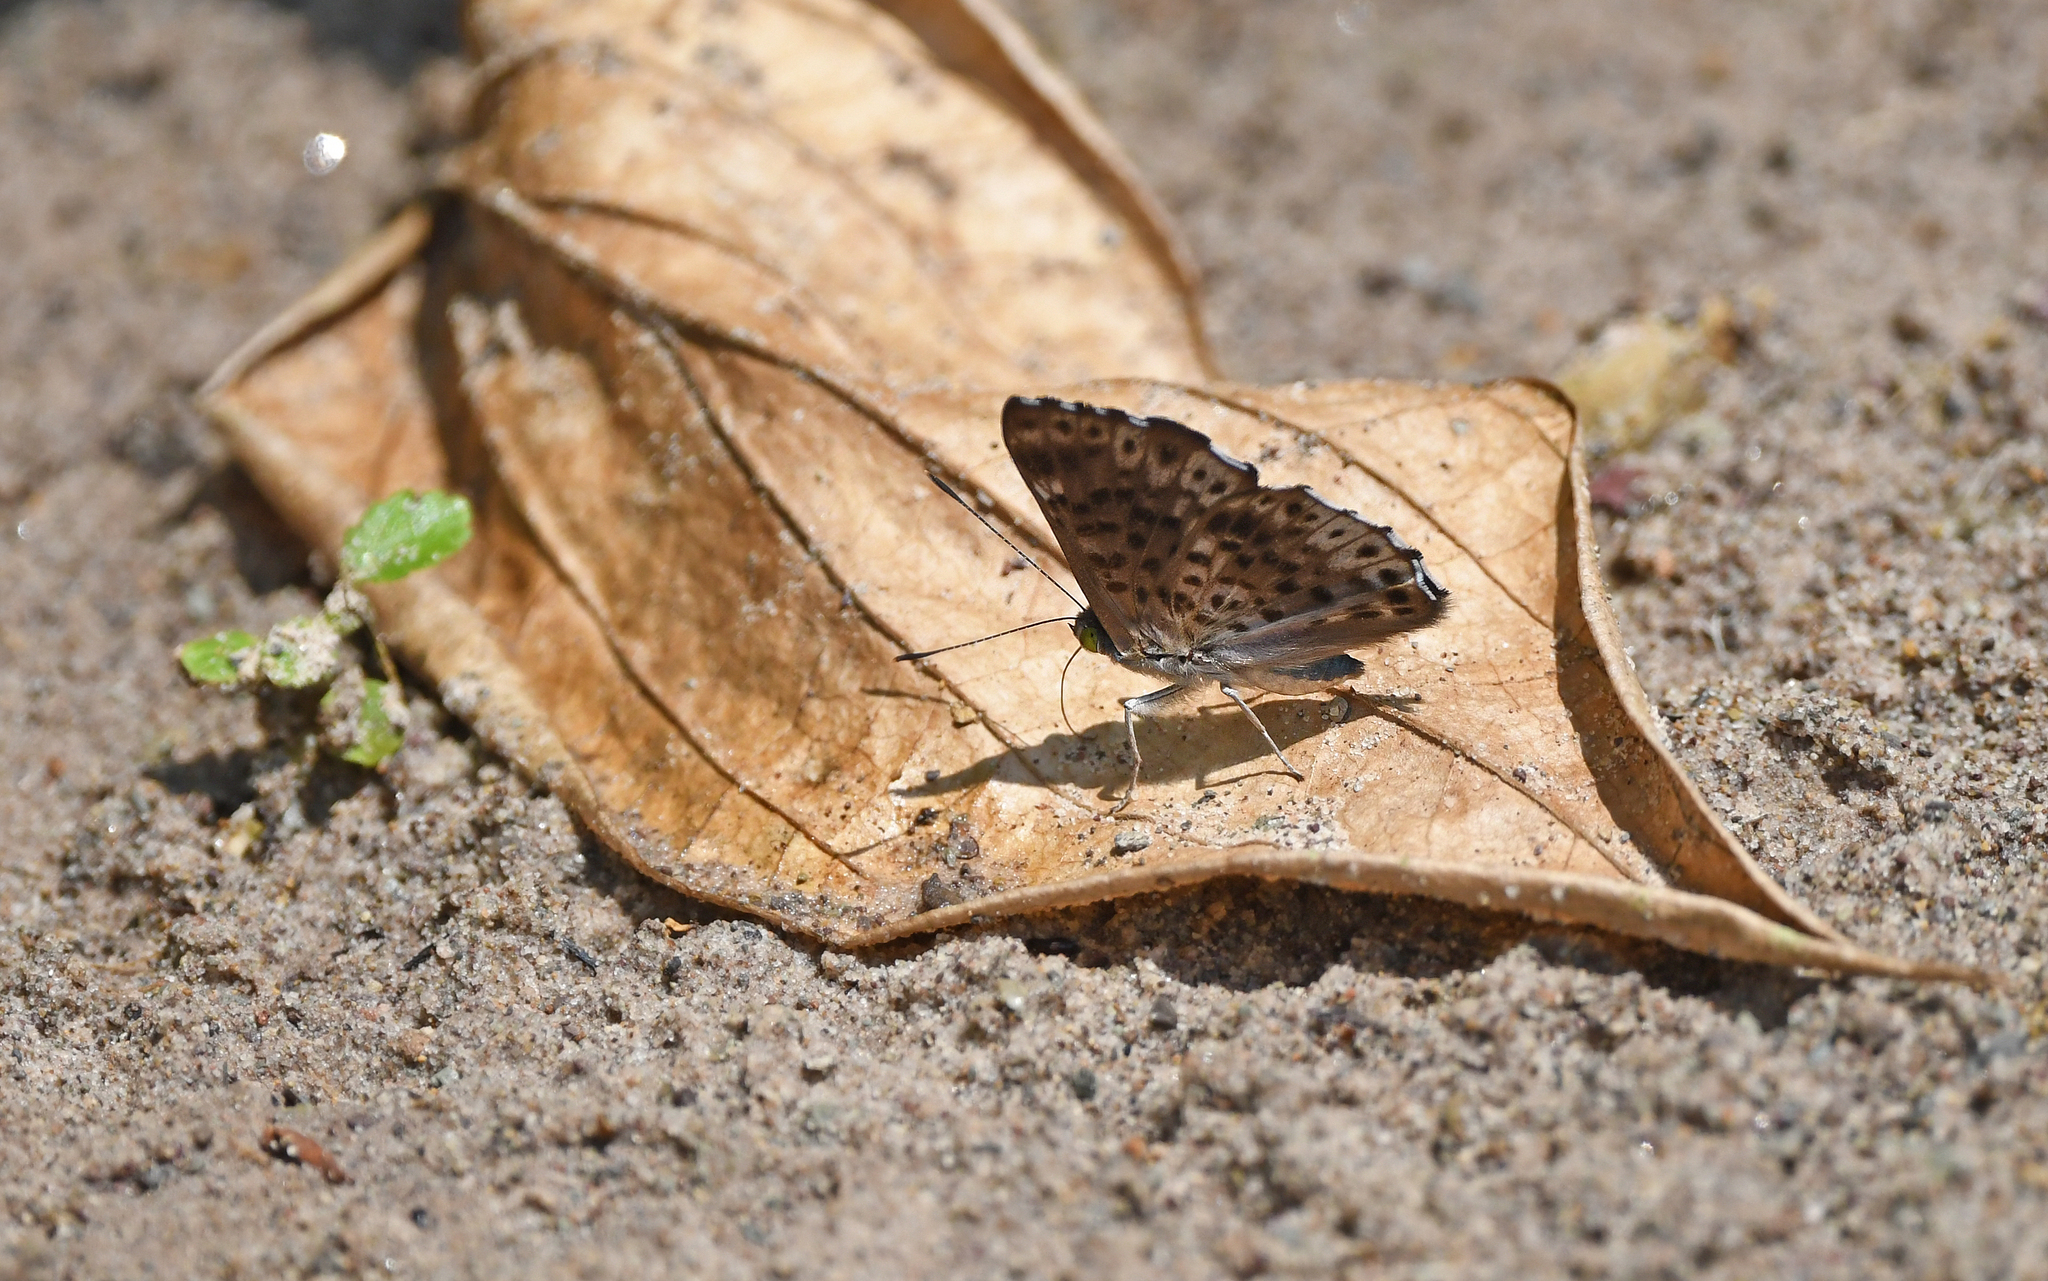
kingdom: Animalia
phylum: Arthropoda
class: Insecta
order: Lepidoptera
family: Riodinidae
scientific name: Riodinidae
